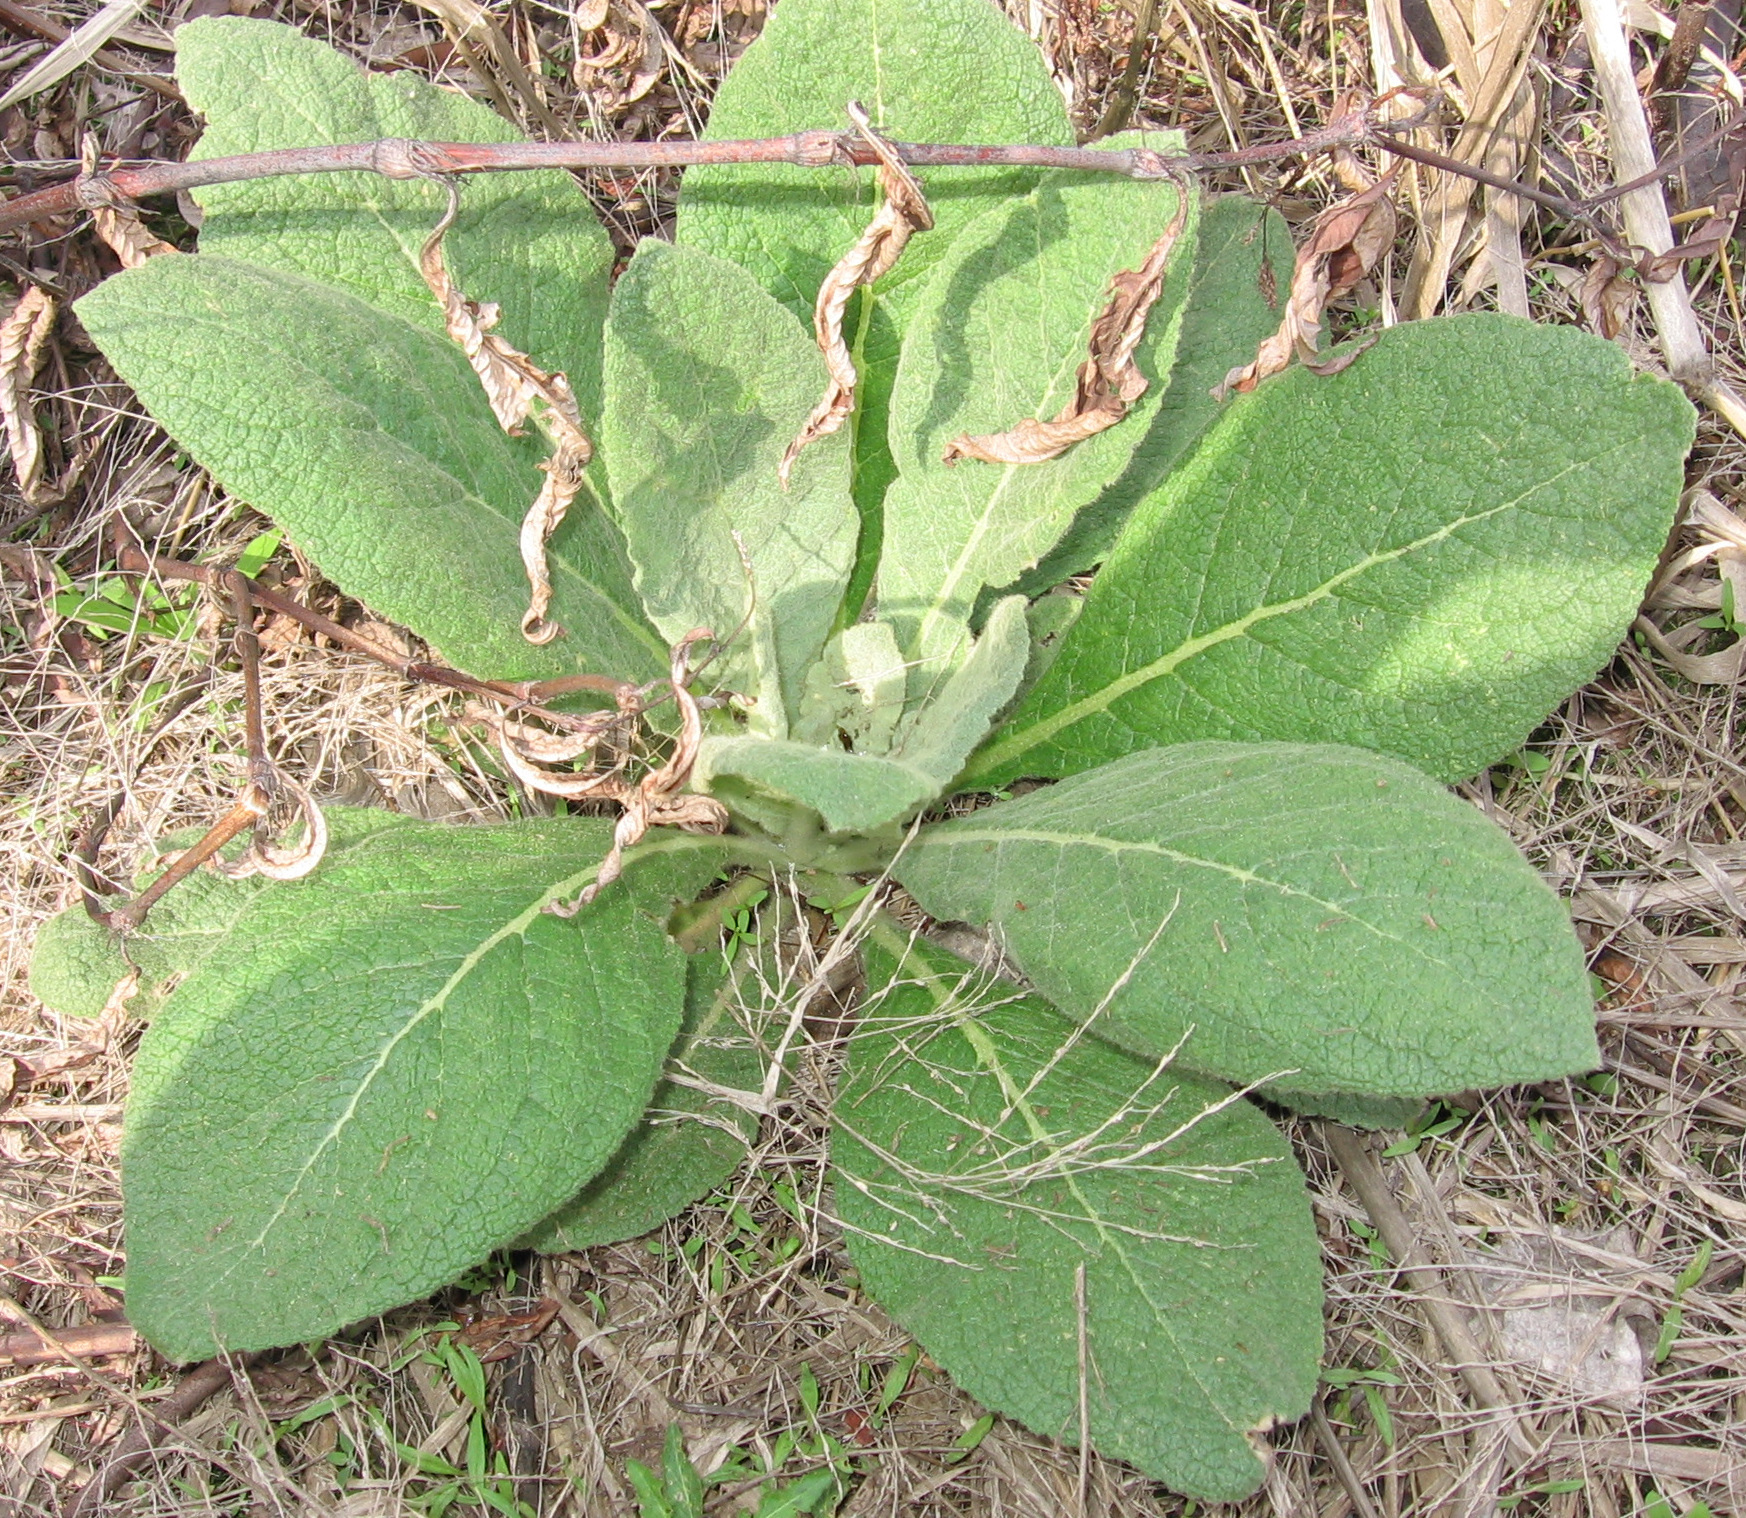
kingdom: Plantae
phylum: Tracheophyta
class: Magnoliopsida
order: Lamiales
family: Scrophulariaceae
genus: Verbascum
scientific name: Verbascum thapsus
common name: Common mullein
